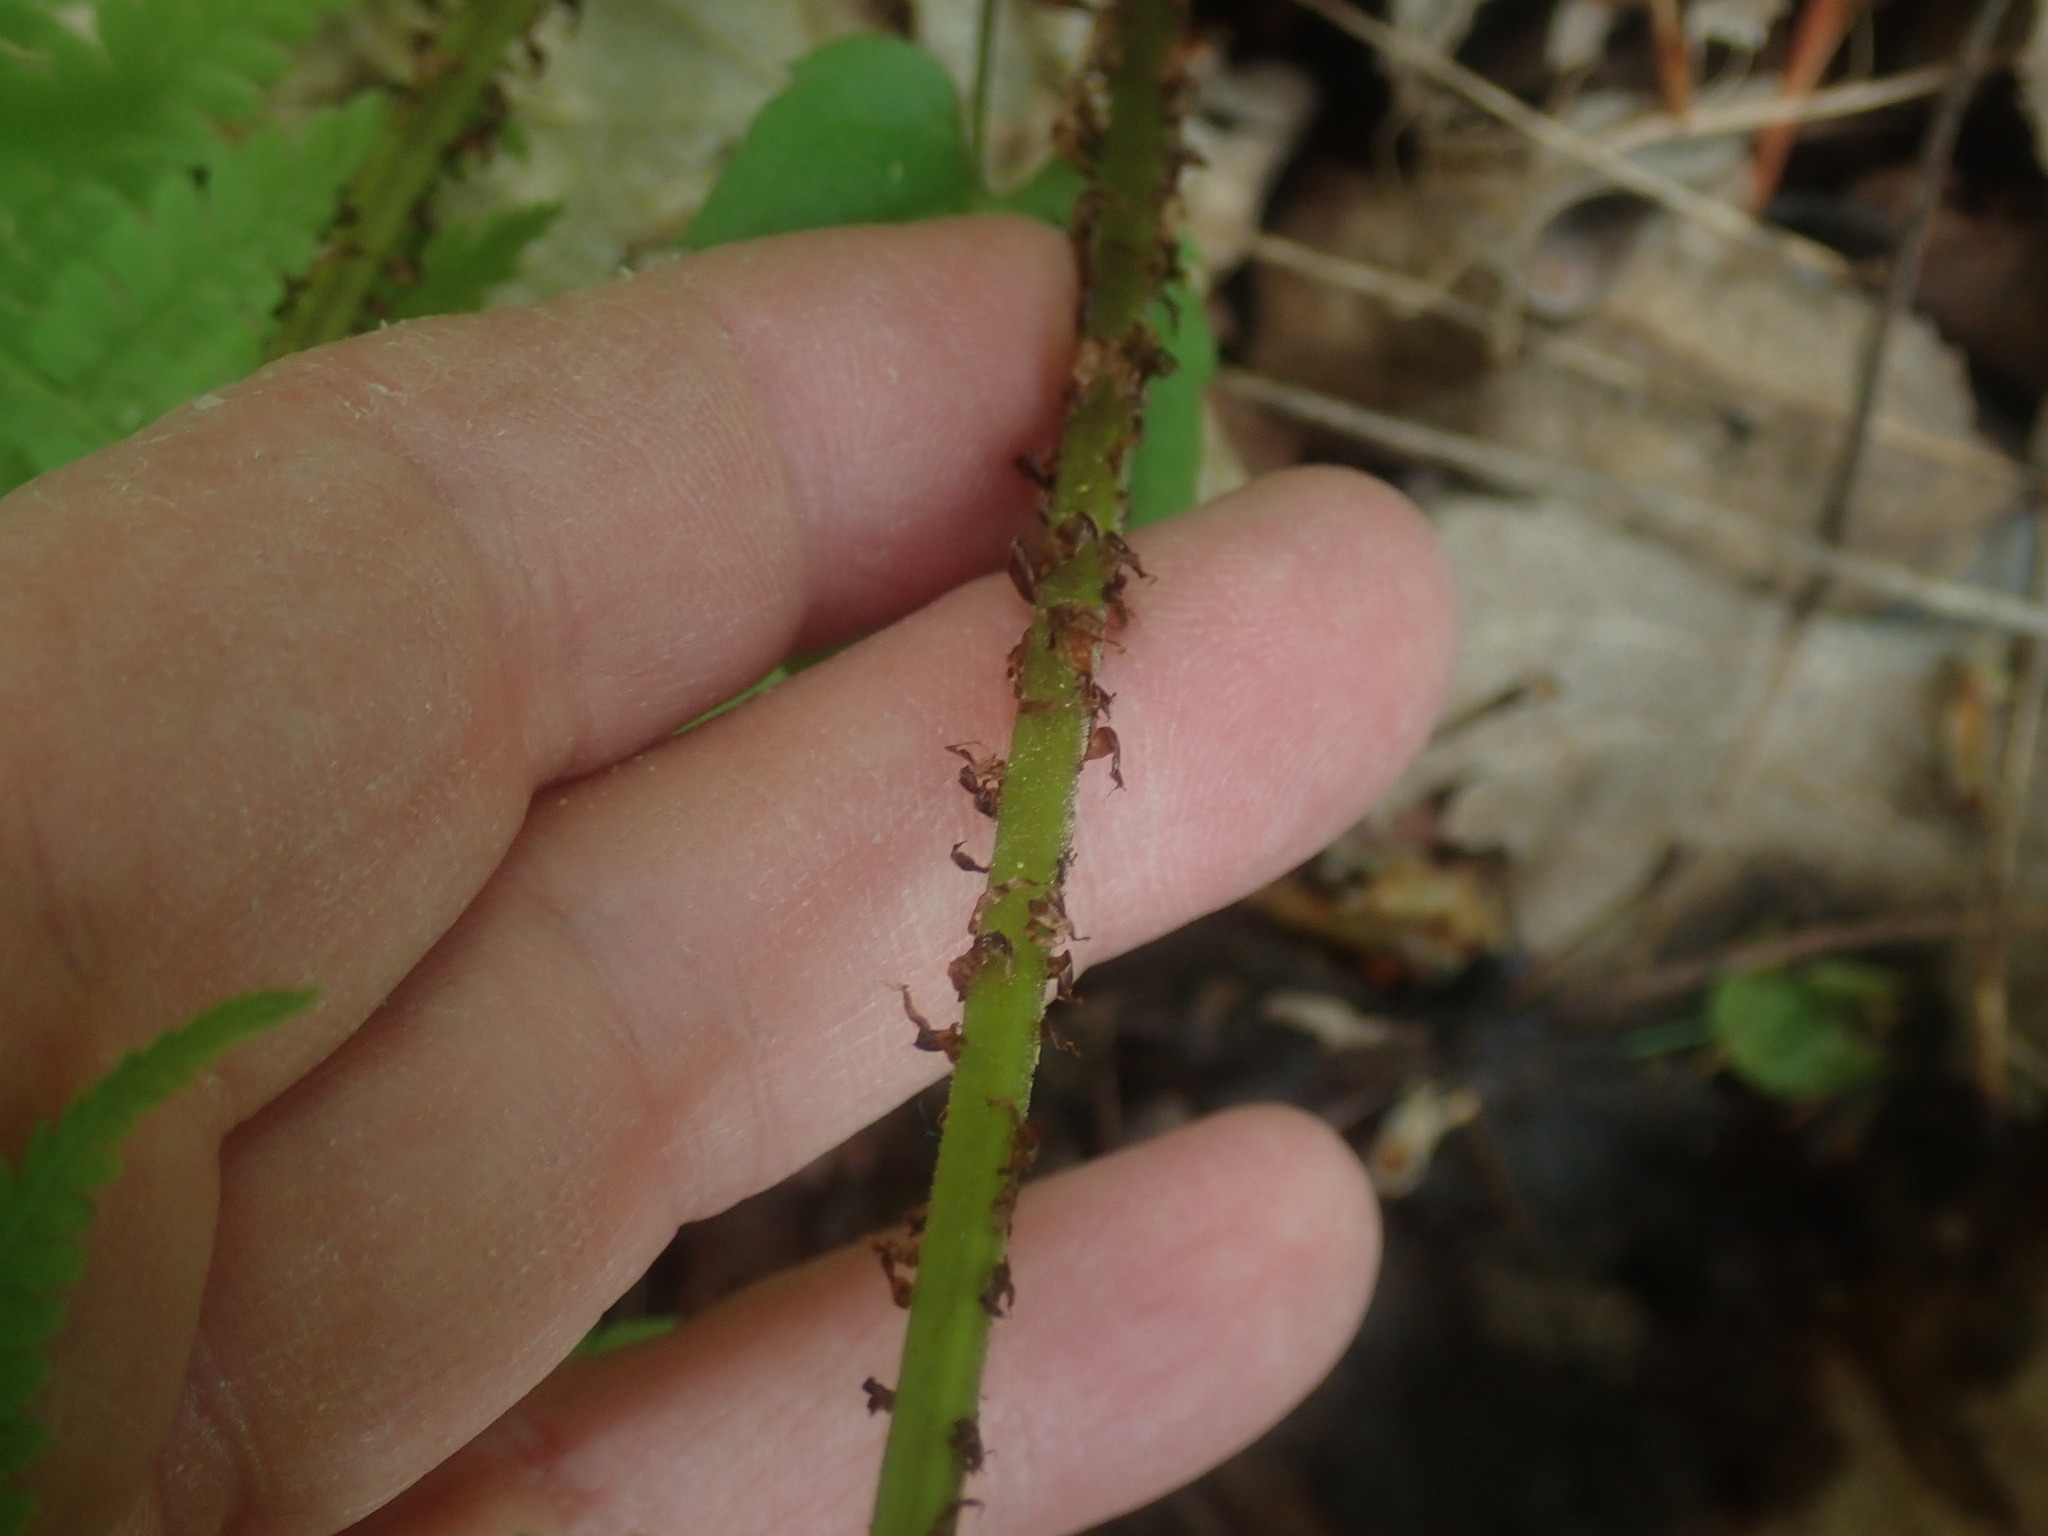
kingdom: Plantae
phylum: Tracheophyta
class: Polypodiopsida
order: Polypodiales
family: Athyriaceae
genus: Athyrium
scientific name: Athyrium angustum
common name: Northern lady fern
